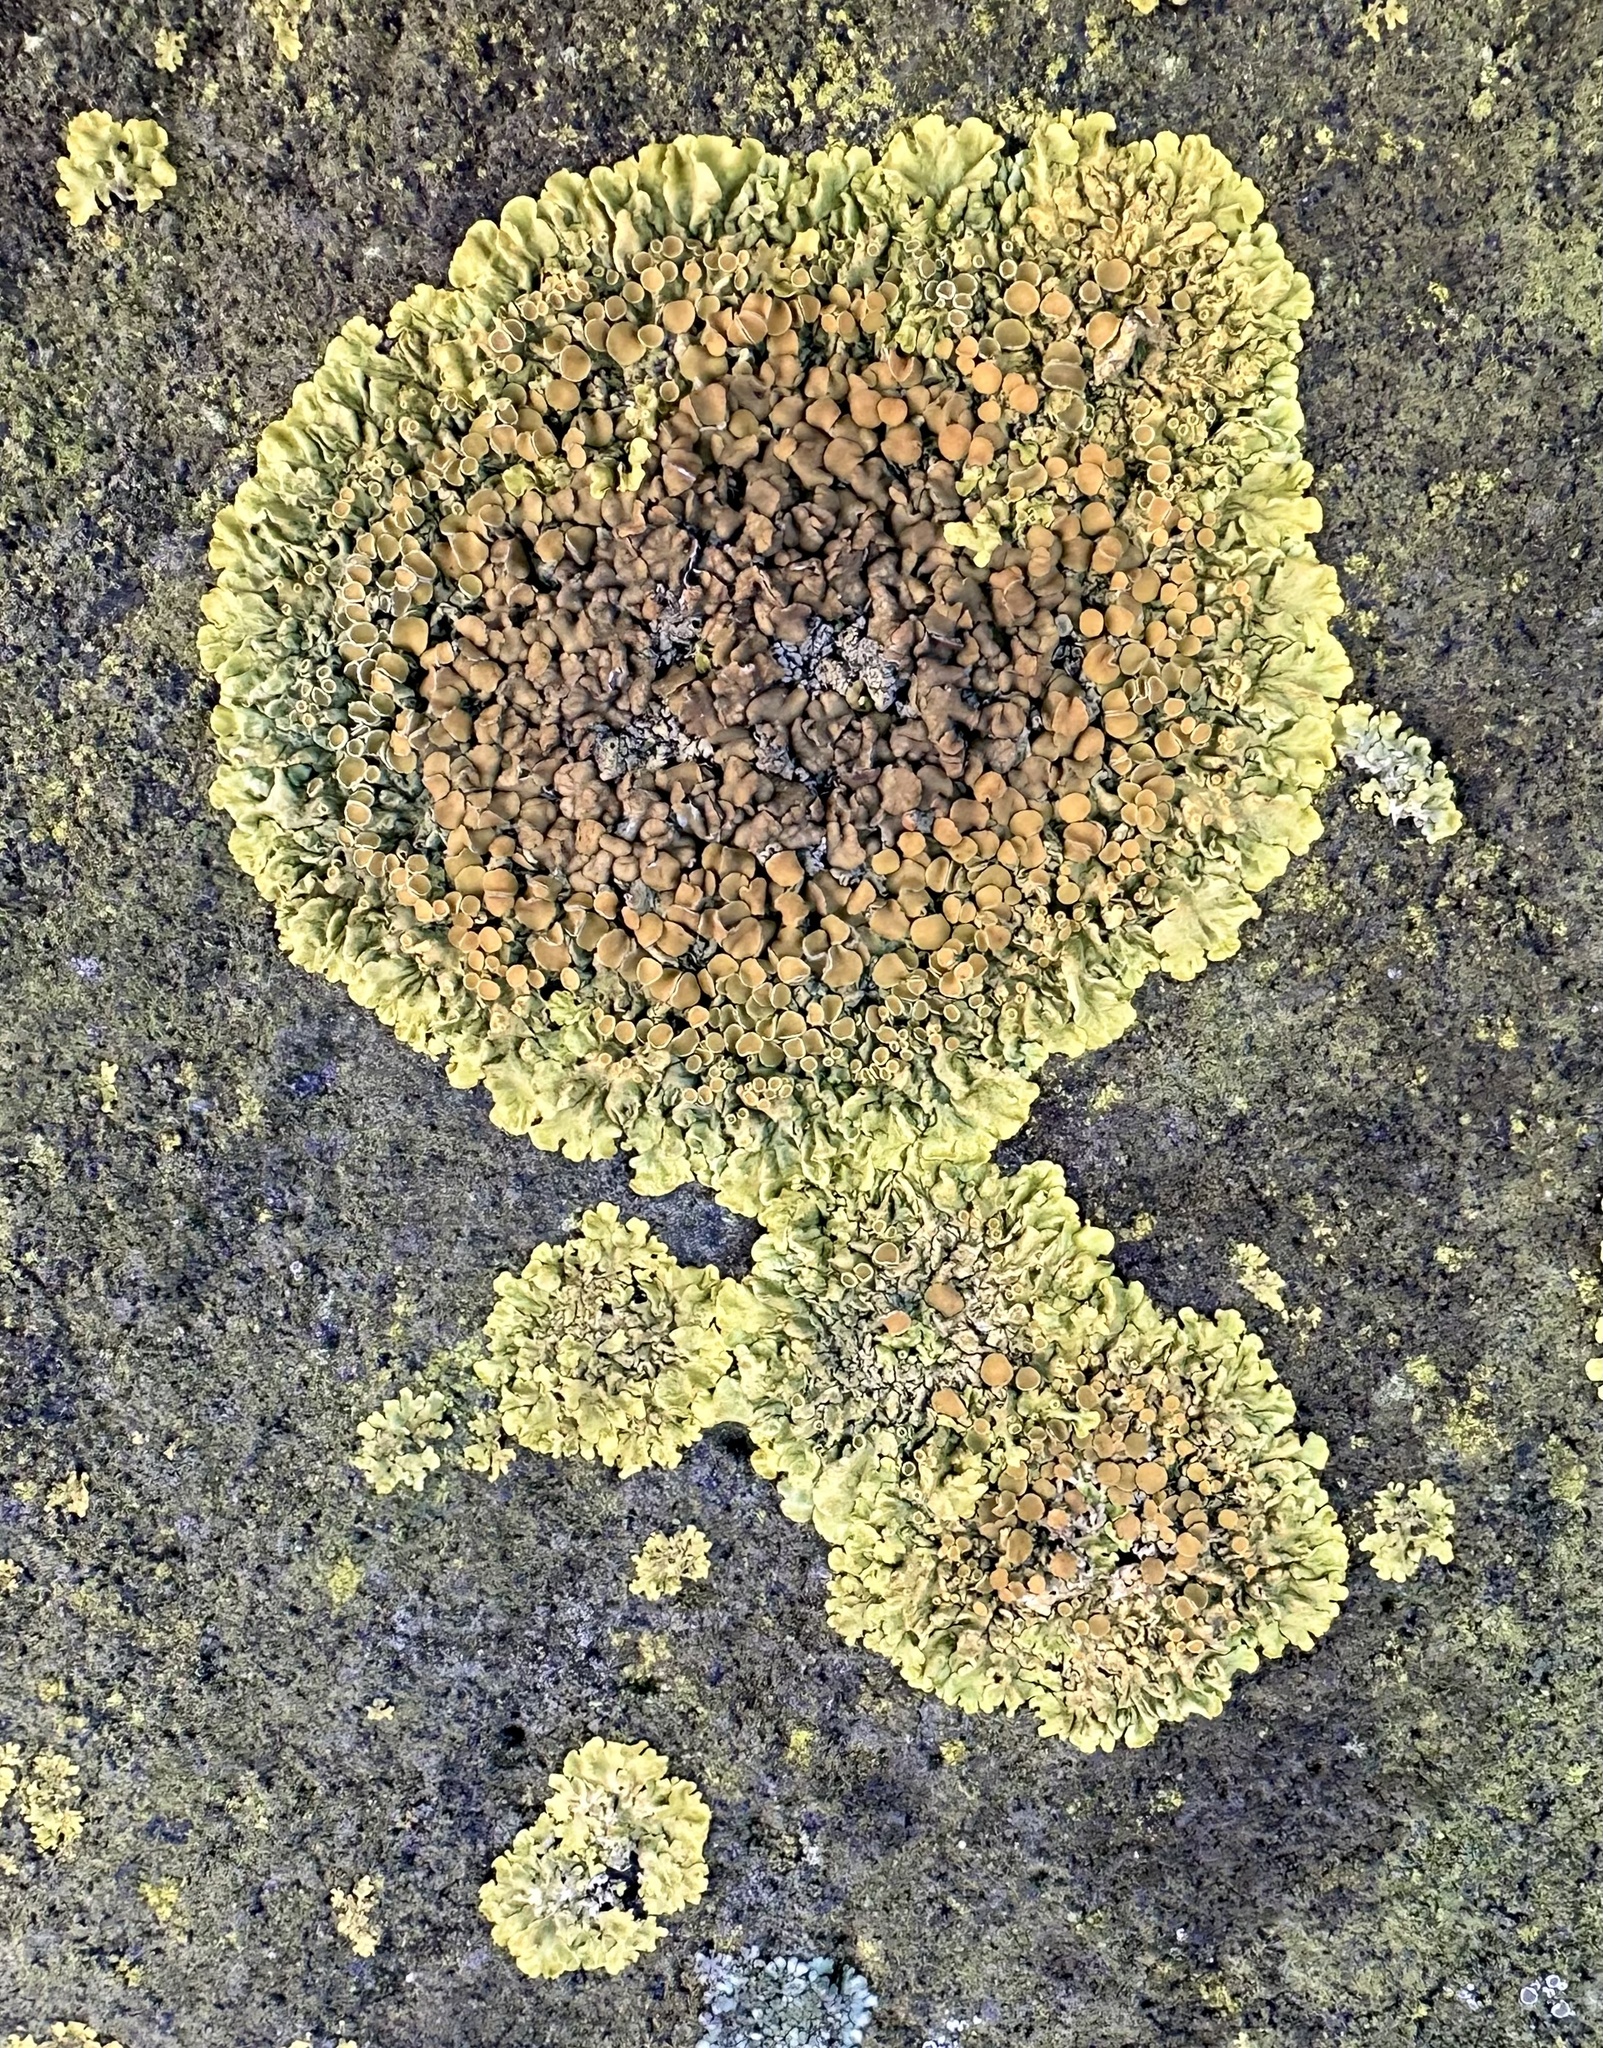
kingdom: Fungi
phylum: Ascomycota
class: Lecanoromycetes
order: Teloschistales
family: Teloschistaceae
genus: Xanthoria
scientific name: Xanthoria parietina
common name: Common orange lichen
